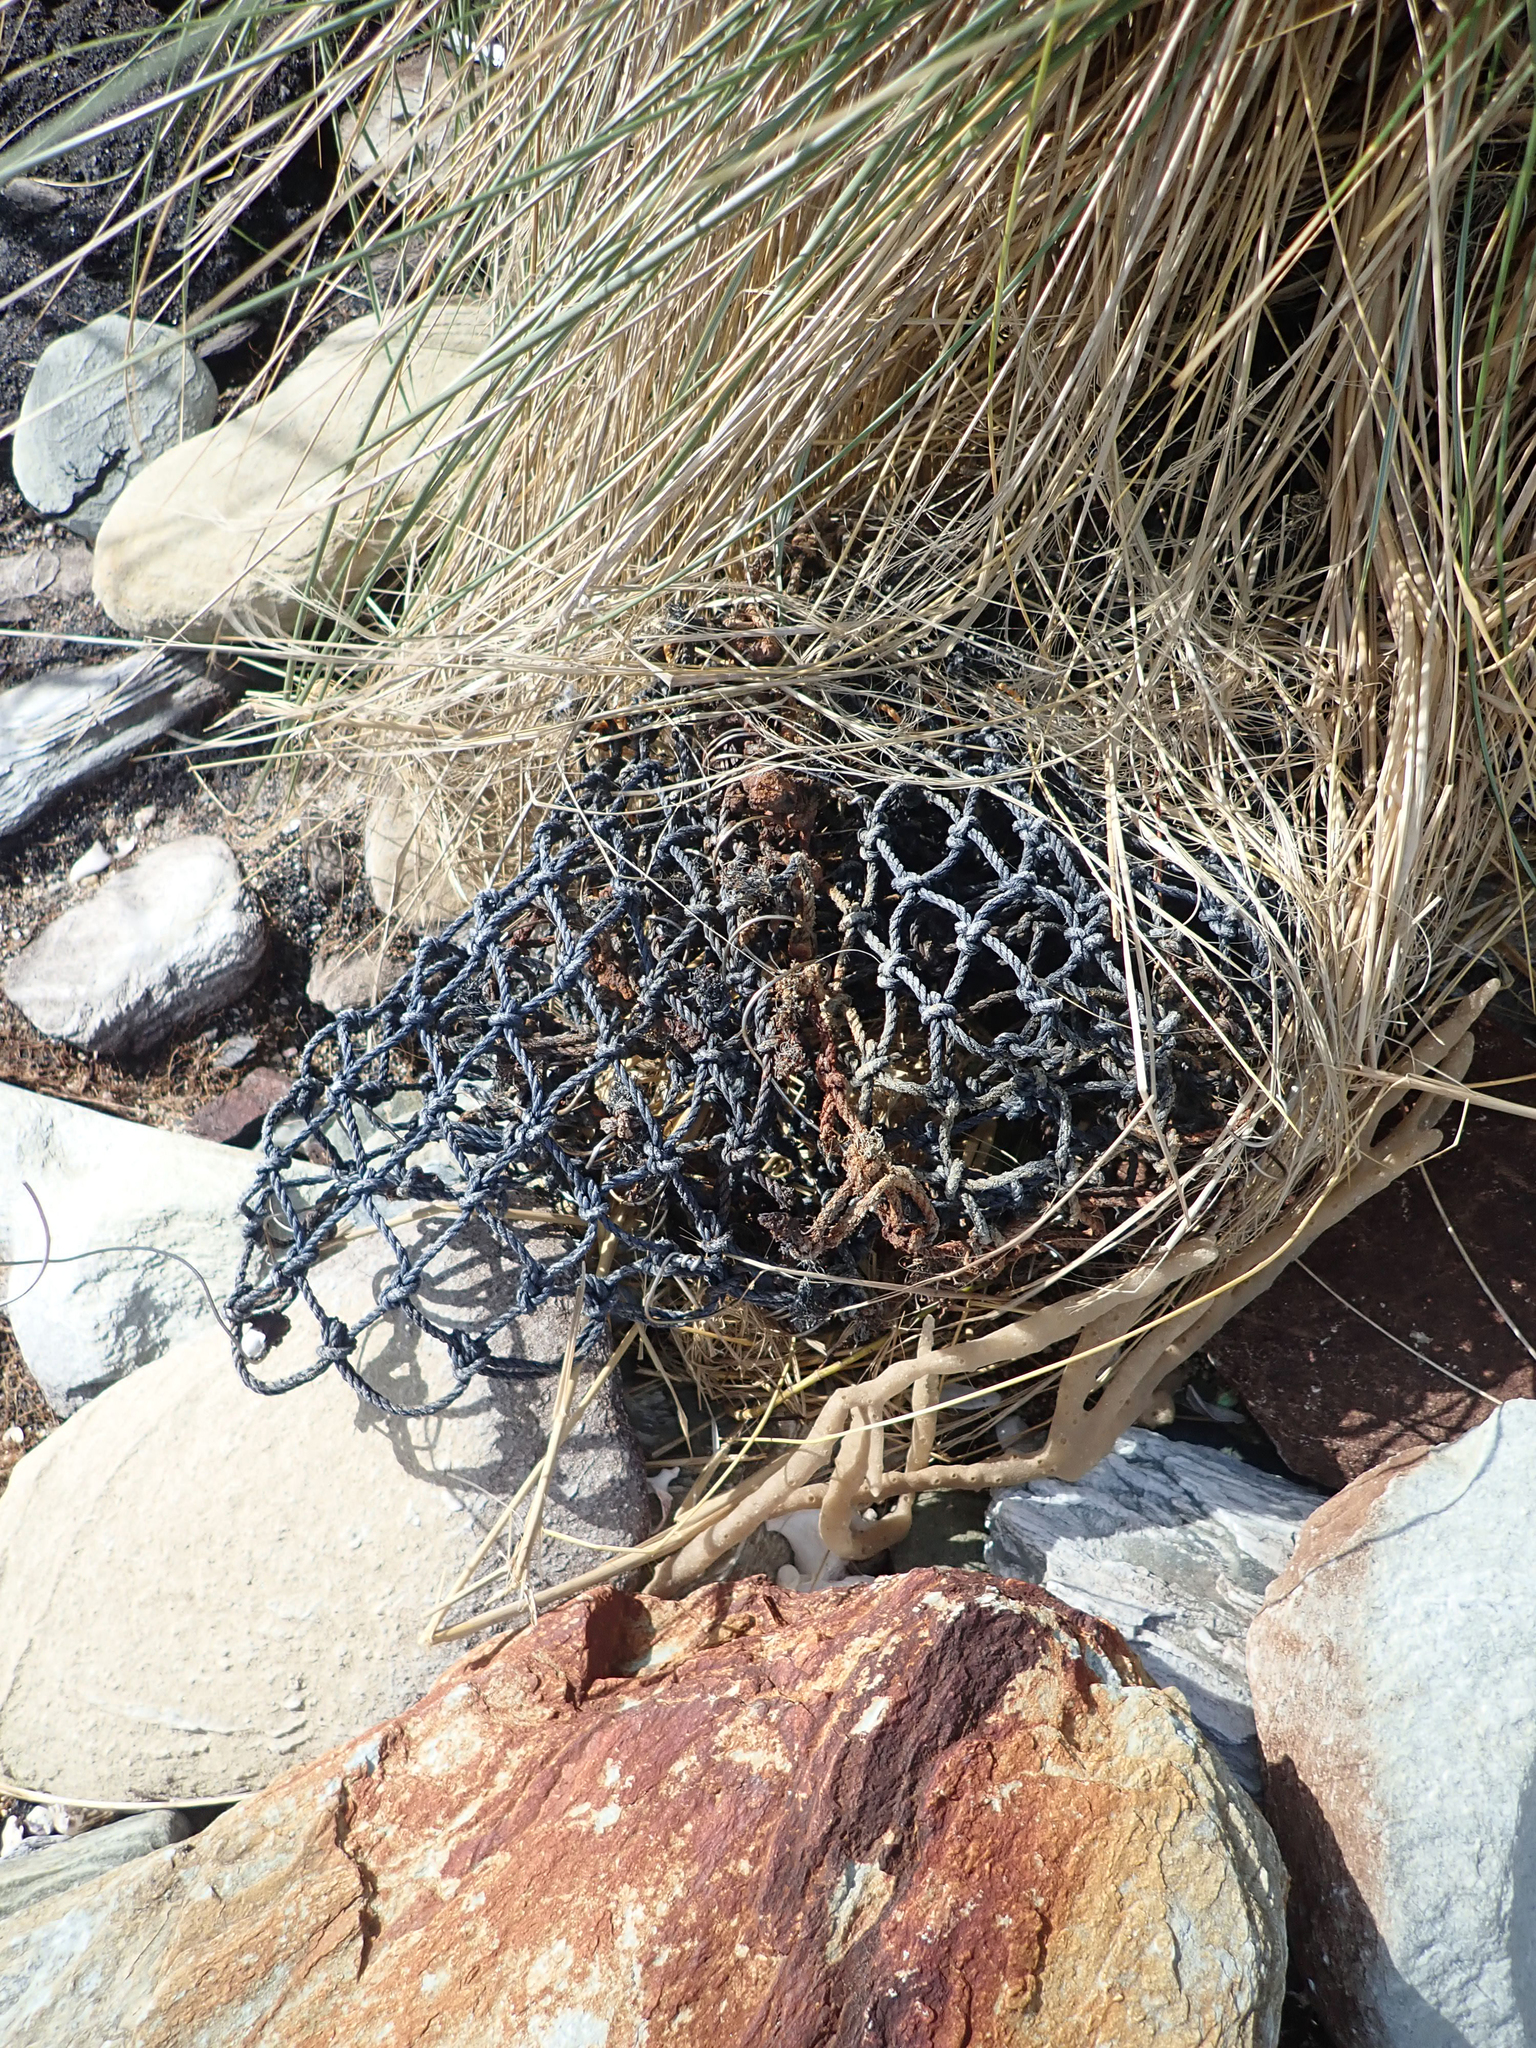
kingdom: Plantae
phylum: Tracheophyta
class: Liliopsida
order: Poales
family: Poaceae
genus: Calamagrostis
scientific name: Calamagrostis arenaria
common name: European beachgrass
